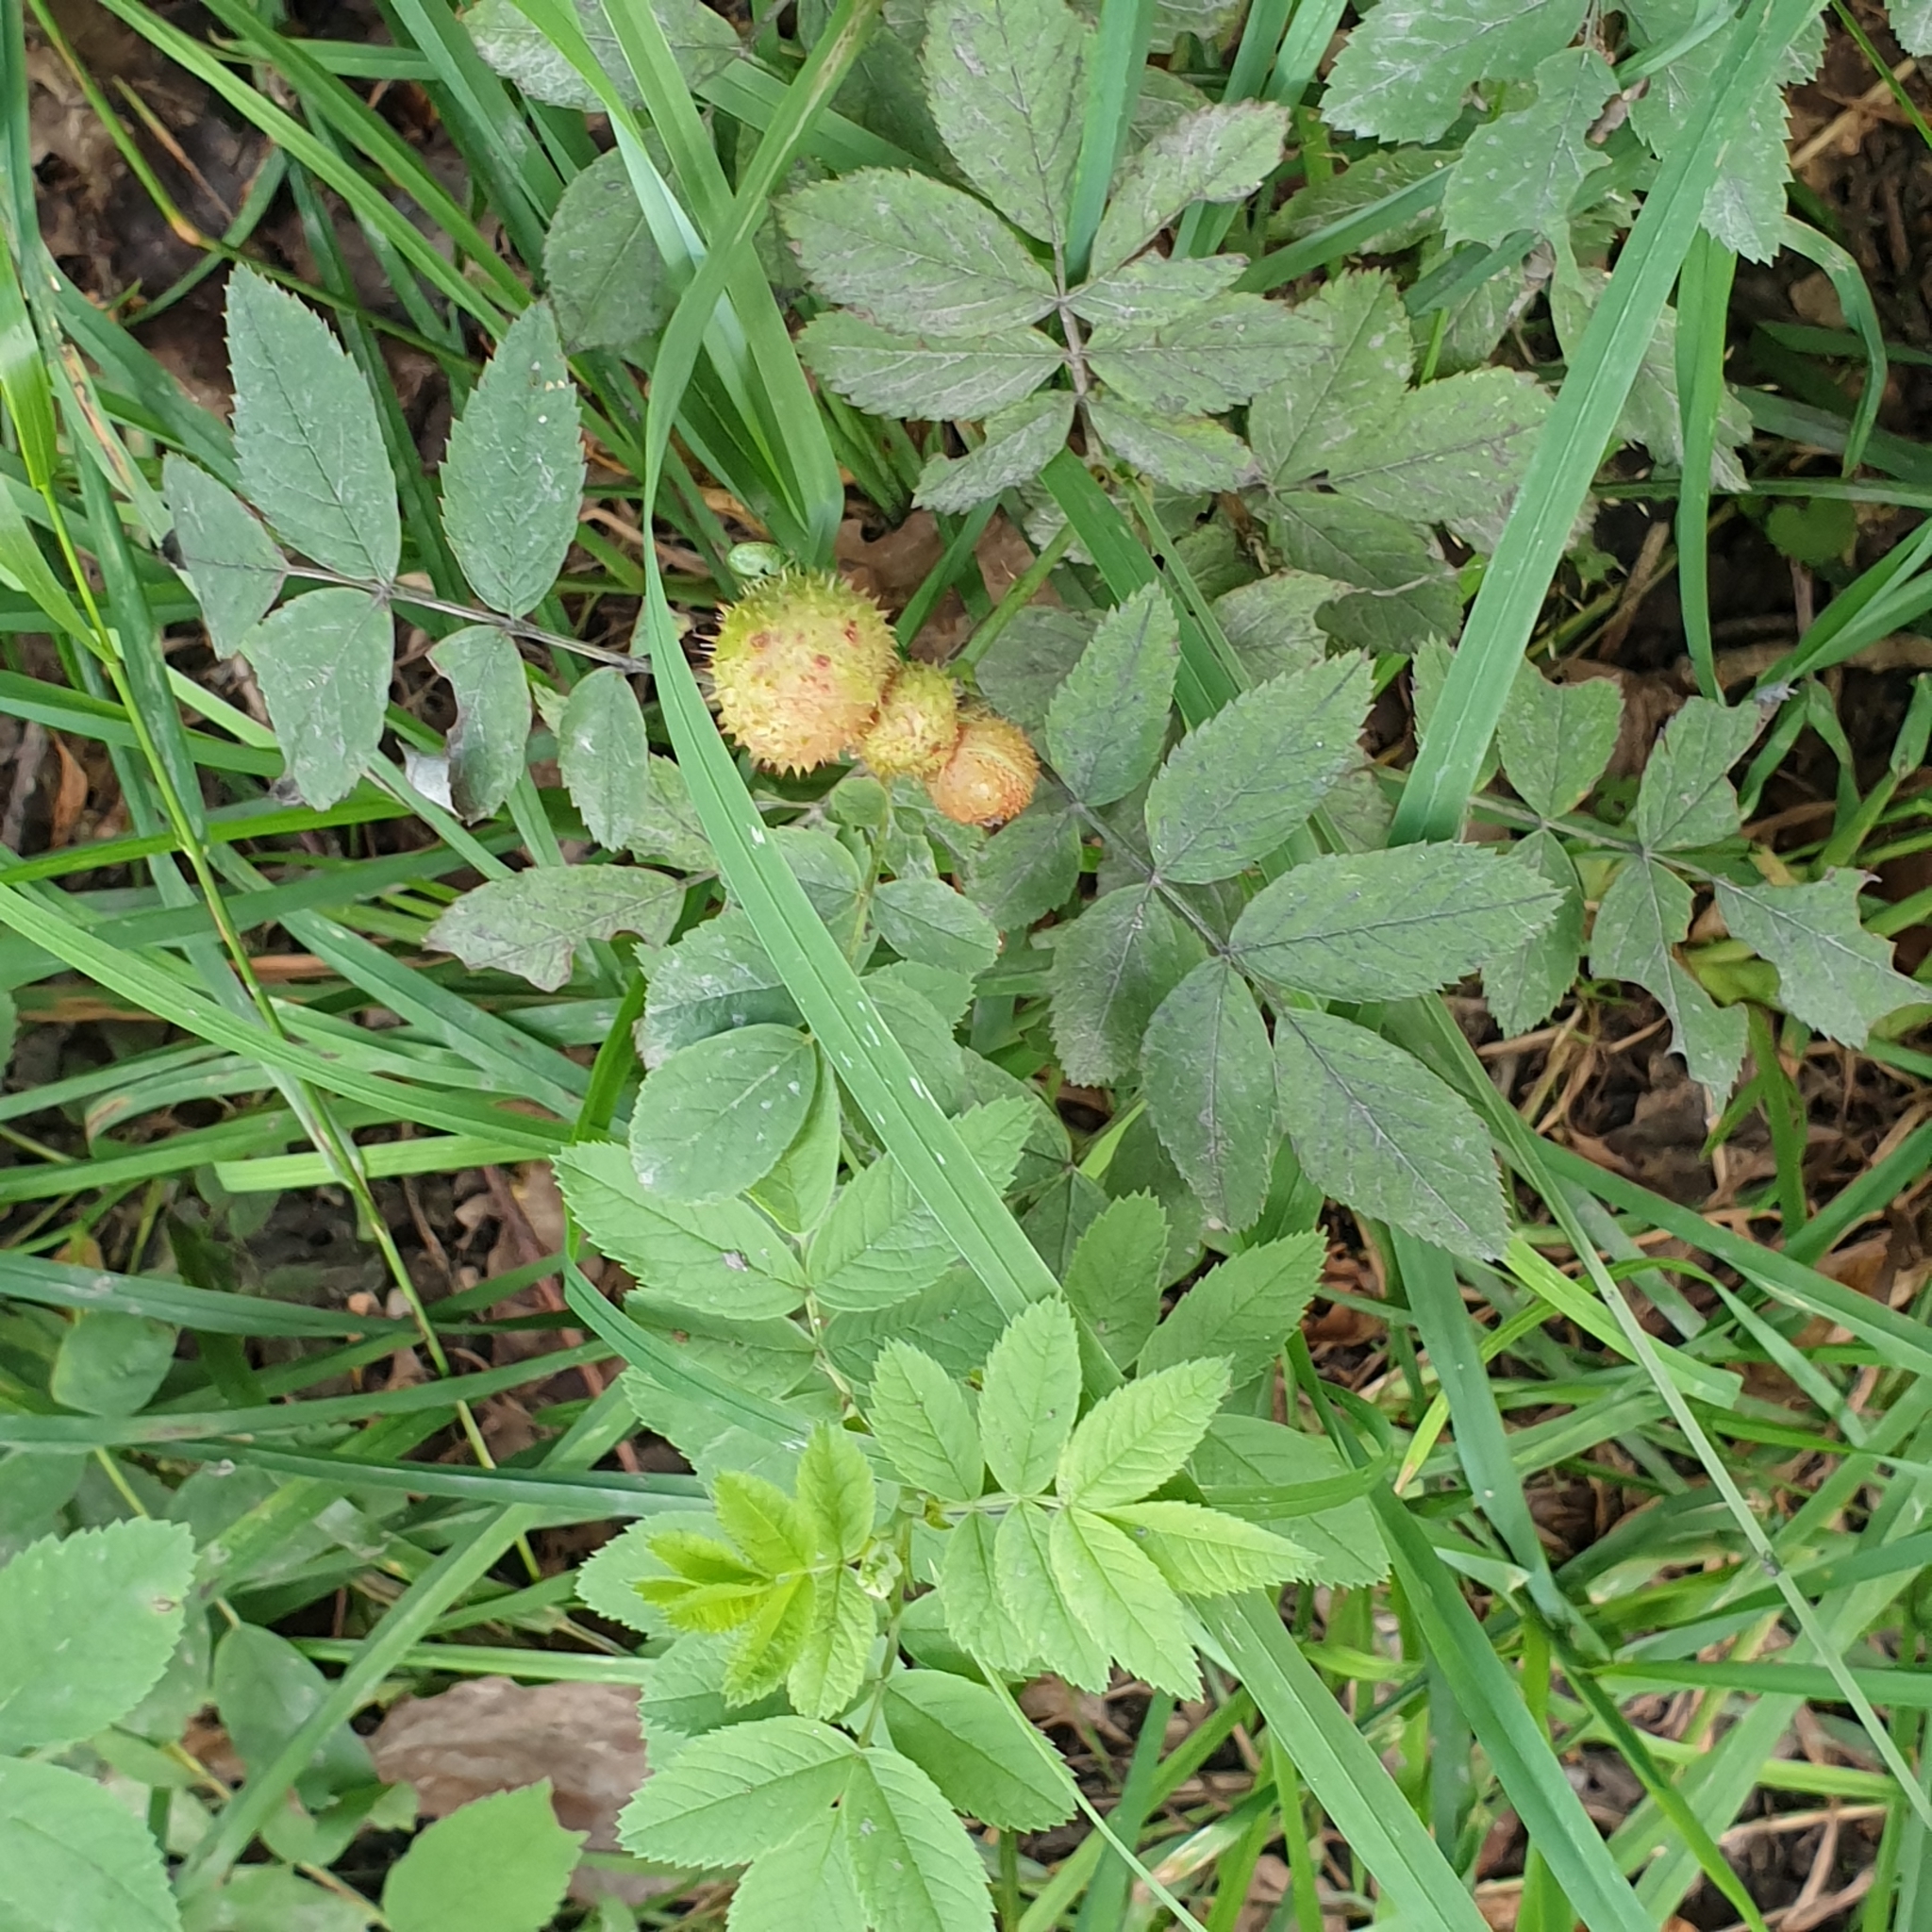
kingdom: Animalia
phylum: Arthropoda
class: Insecta
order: Hymenoptera
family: Cynipidae
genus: Diplolepis
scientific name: Diplolepis mayri
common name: Gall wasp
